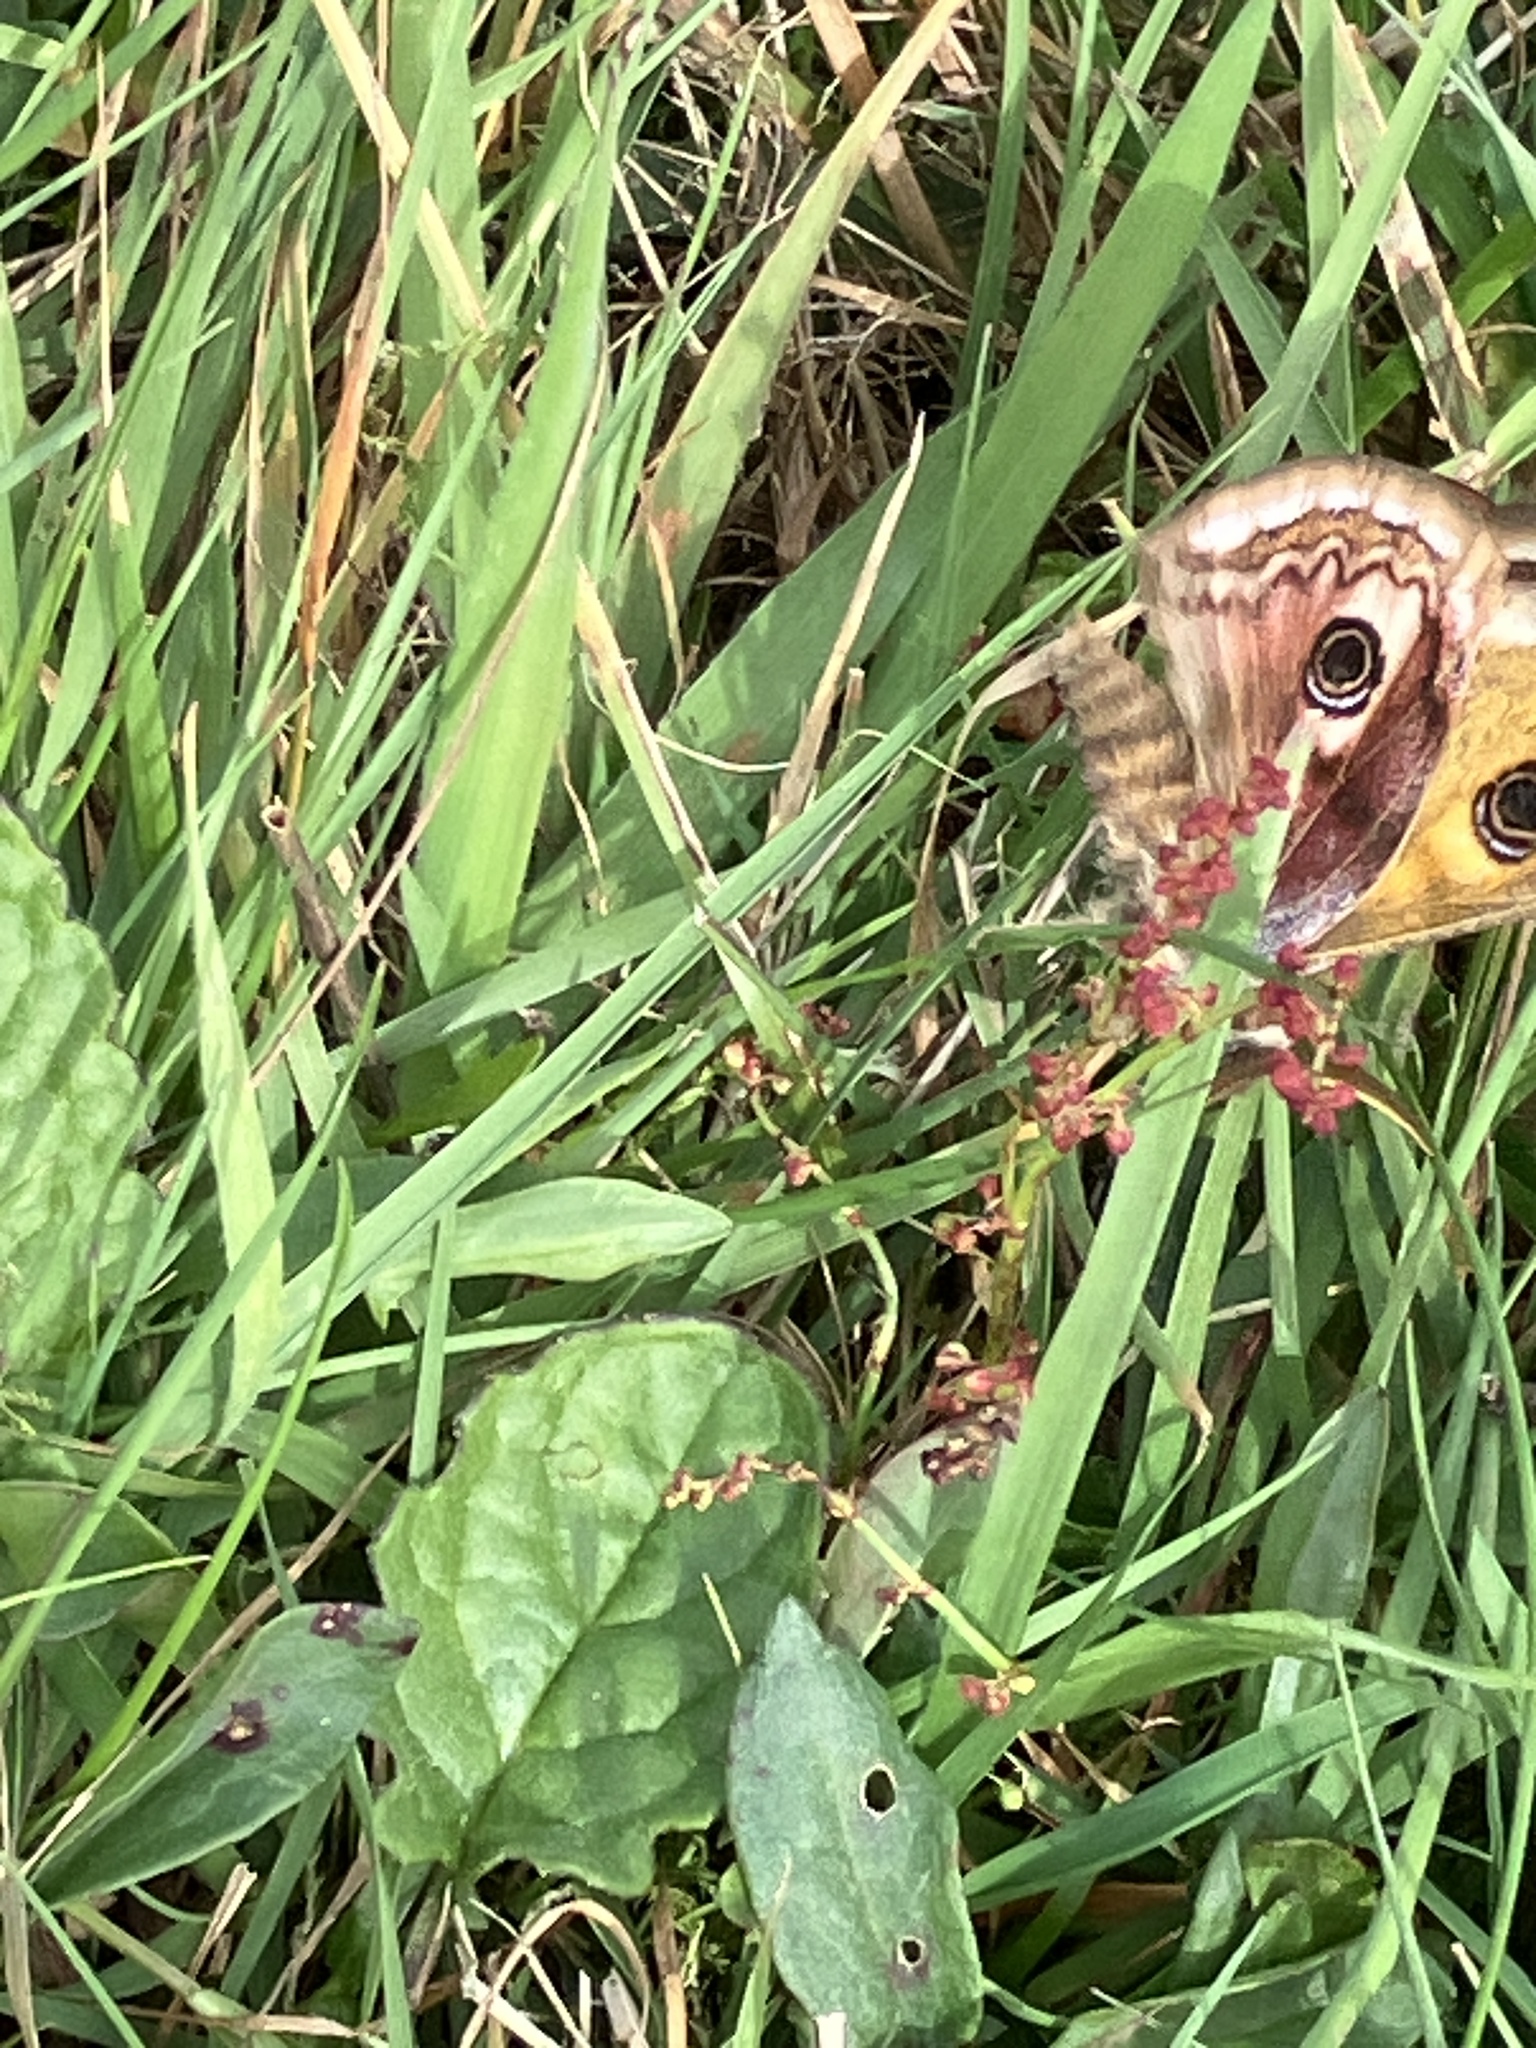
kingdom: Animalia
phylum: Arthropoda
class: Insecta
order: Lepidoptera
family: Saturniidae
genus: Saturnia
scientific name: Saturnia pavonia
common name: Emperor moth
